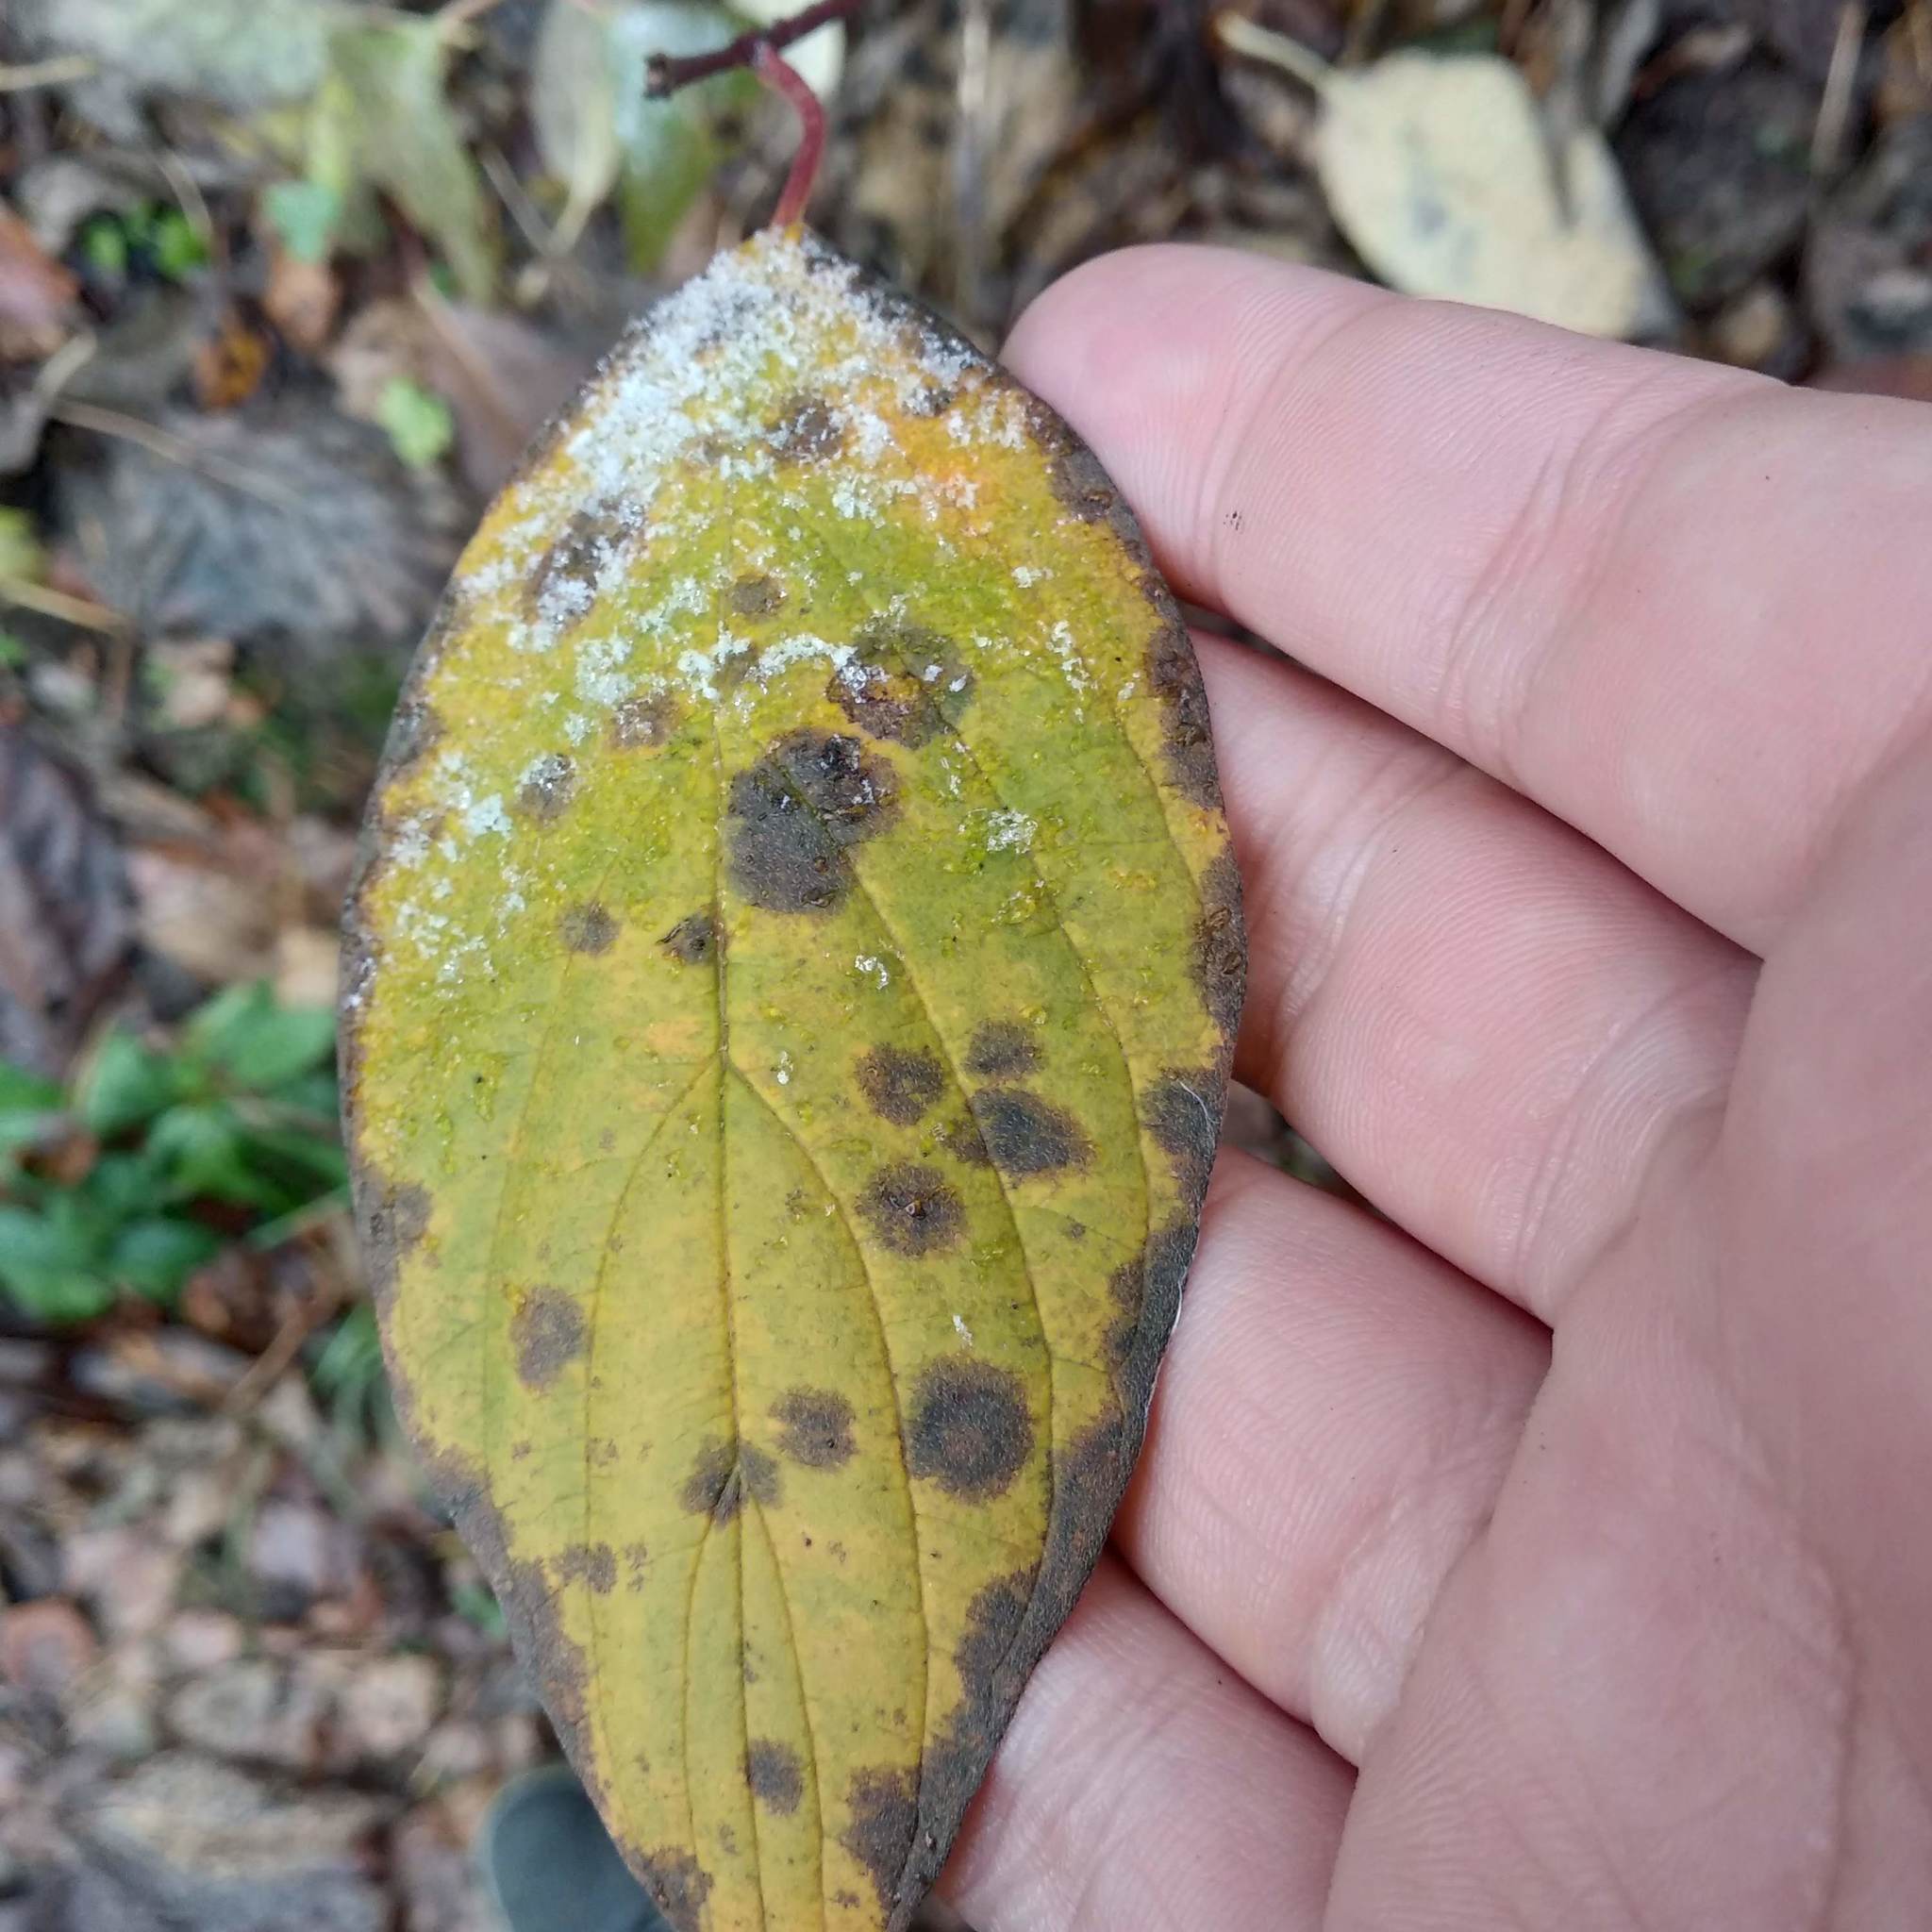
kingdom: Plantae
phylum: Tracheophyta
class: Magnoliopsida
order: Cornales
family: Cornaceae
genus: Cornus
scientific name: Cornus alba
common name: White dogwood
